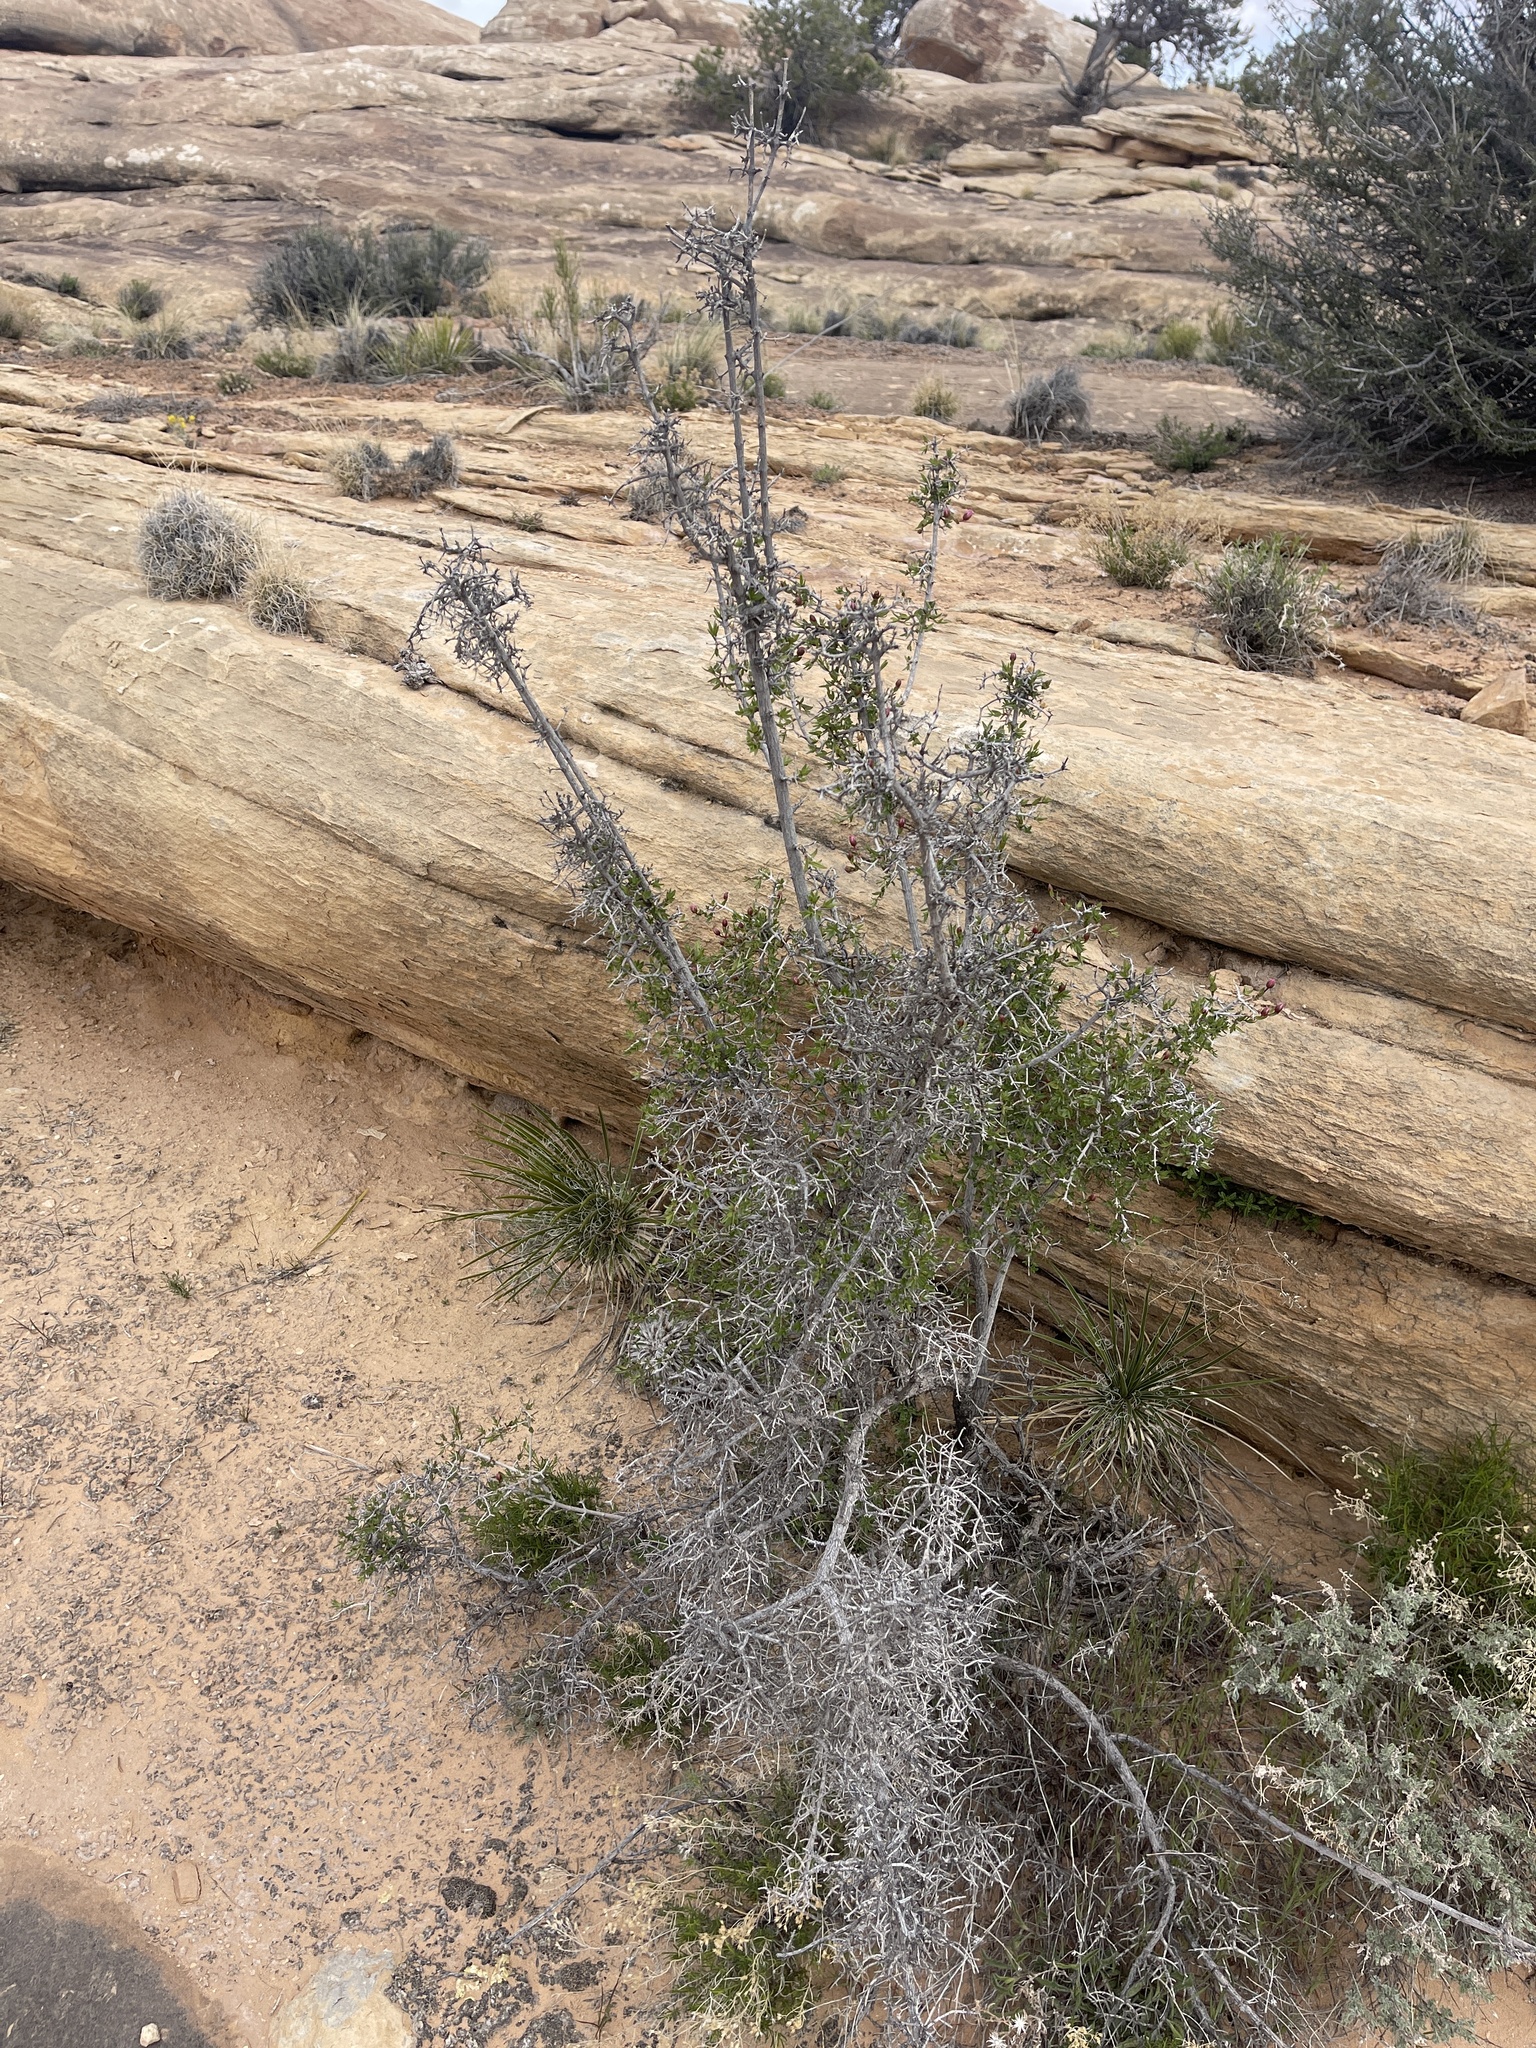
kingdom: Plantae
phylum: Tracheophyta
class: Magnoliopsida
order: Cornales
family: Hydrangeaceae
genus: Fendlera
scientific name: Fendlera rupicola
